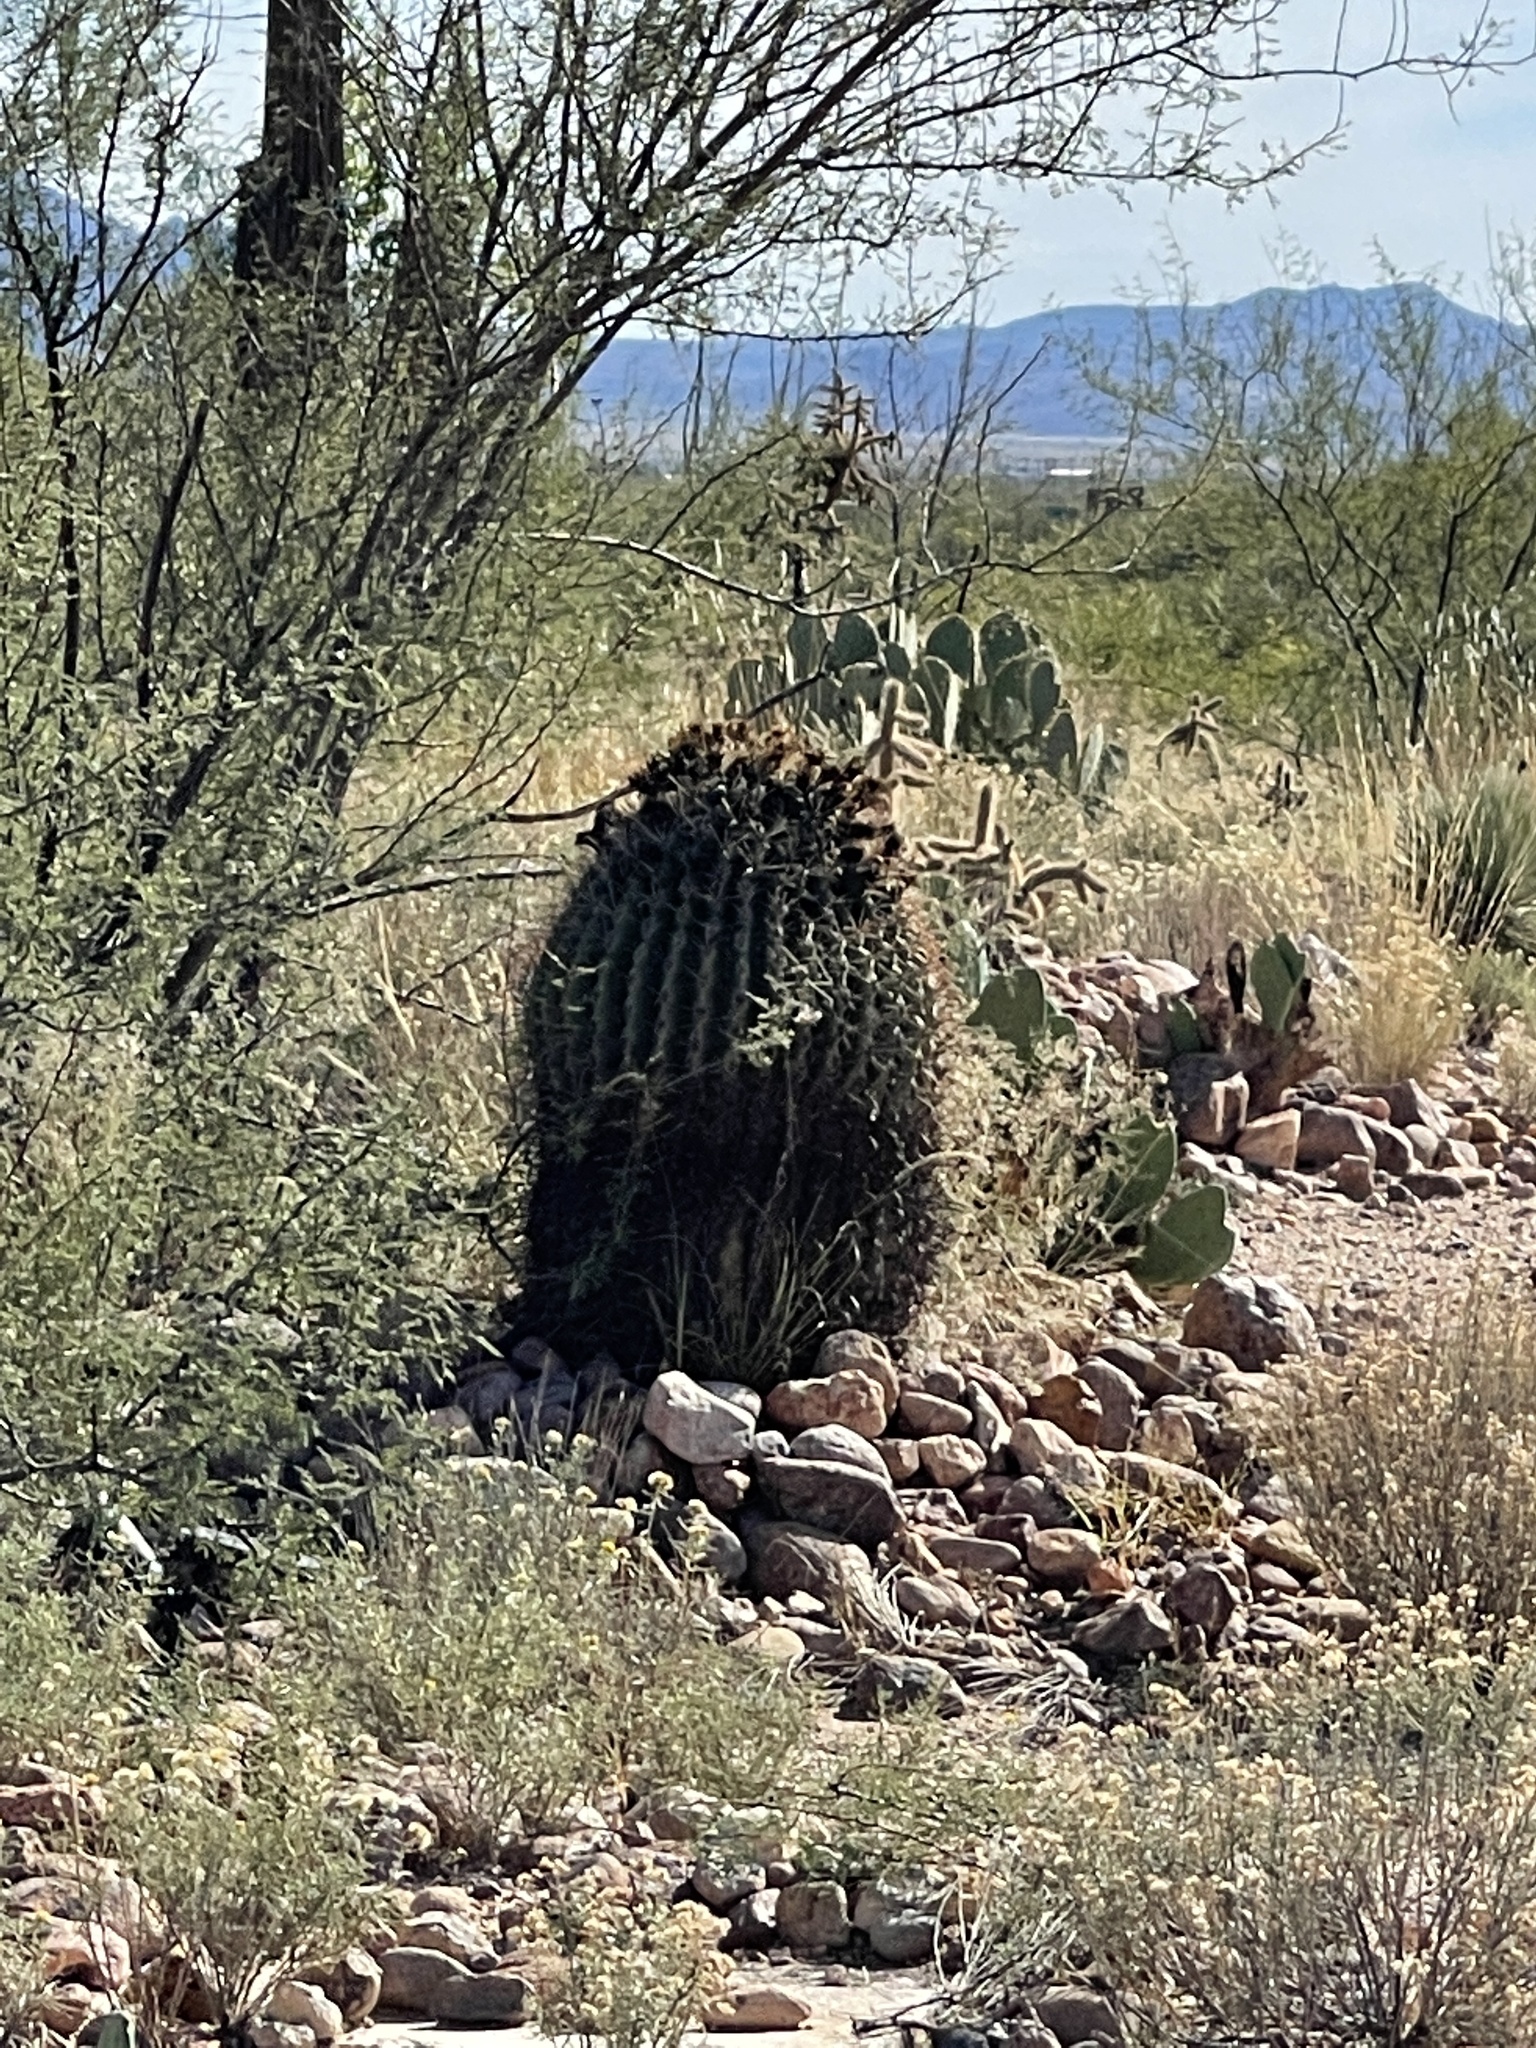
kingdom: Plantae
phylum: Tracheophyta
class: Magnoliopsida
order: Caryophyllales
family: Cactaceae
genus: Ferocactus
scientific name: Ferocactus wislizeni
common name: Candy barrel cactus
